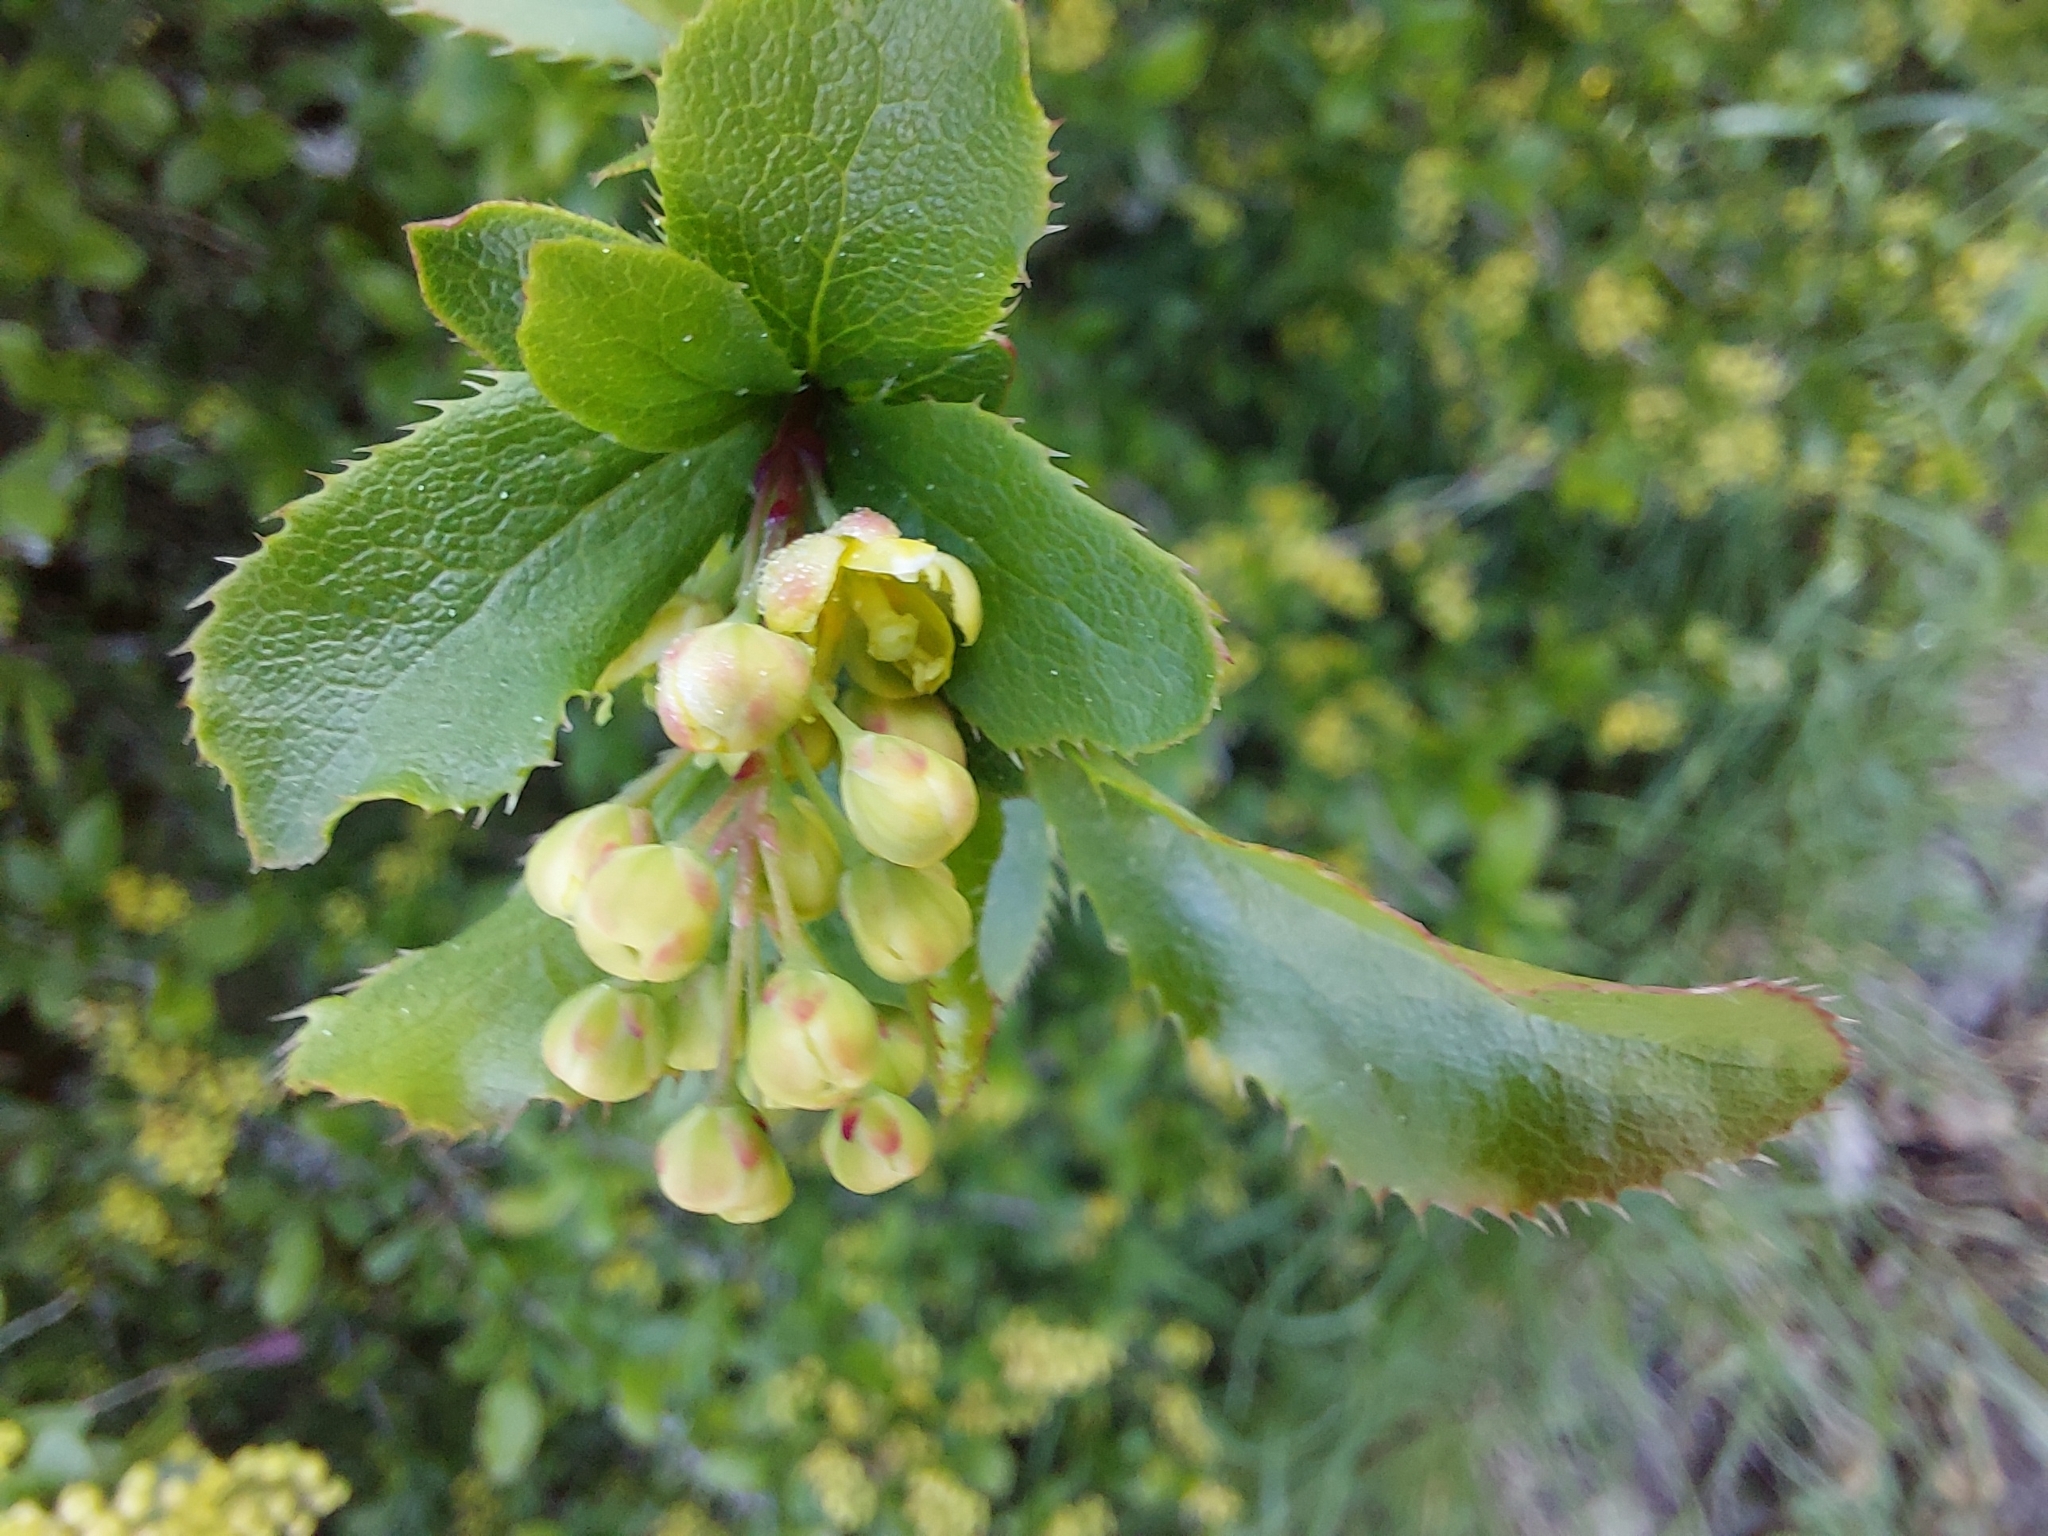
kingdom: Plantae
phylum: Tracheophyta
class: Magnoliopsida
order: Ranunculales
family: Berberidaceae
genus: Berberis
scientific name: Berberis vulgaris
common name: Barberry
